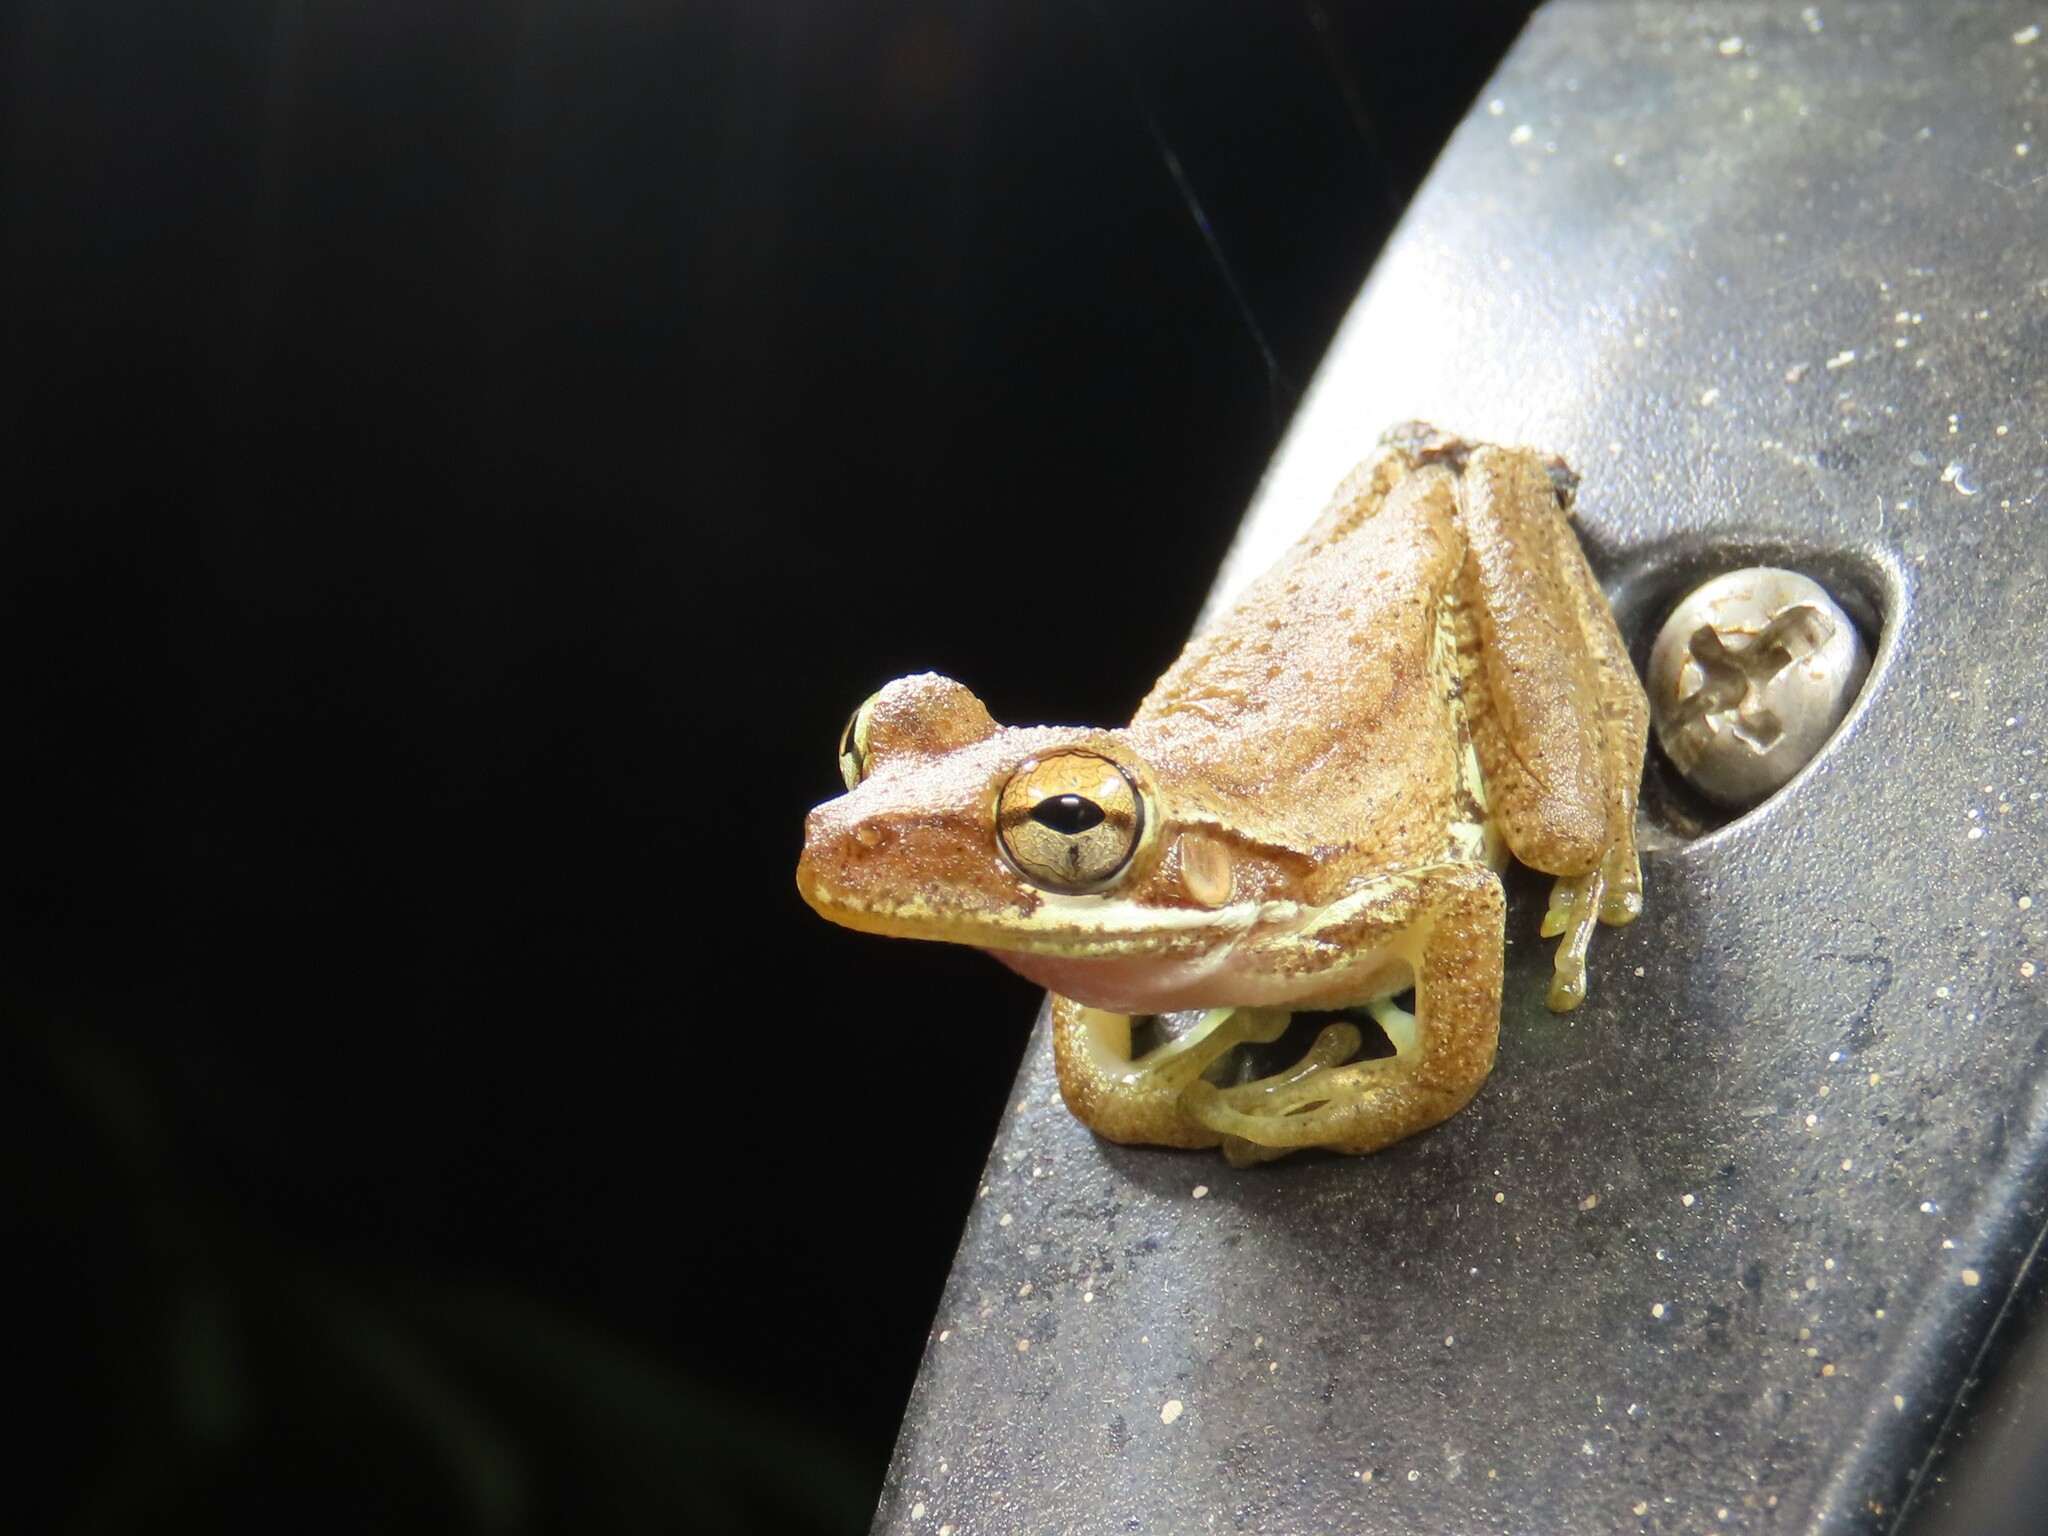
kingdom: Animalia
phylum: Chordata
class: Amphibia
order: Anura
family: Hylidae
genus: Osteopilus
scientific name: Osteopilus septentrionalis
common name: Cuban treefrog
